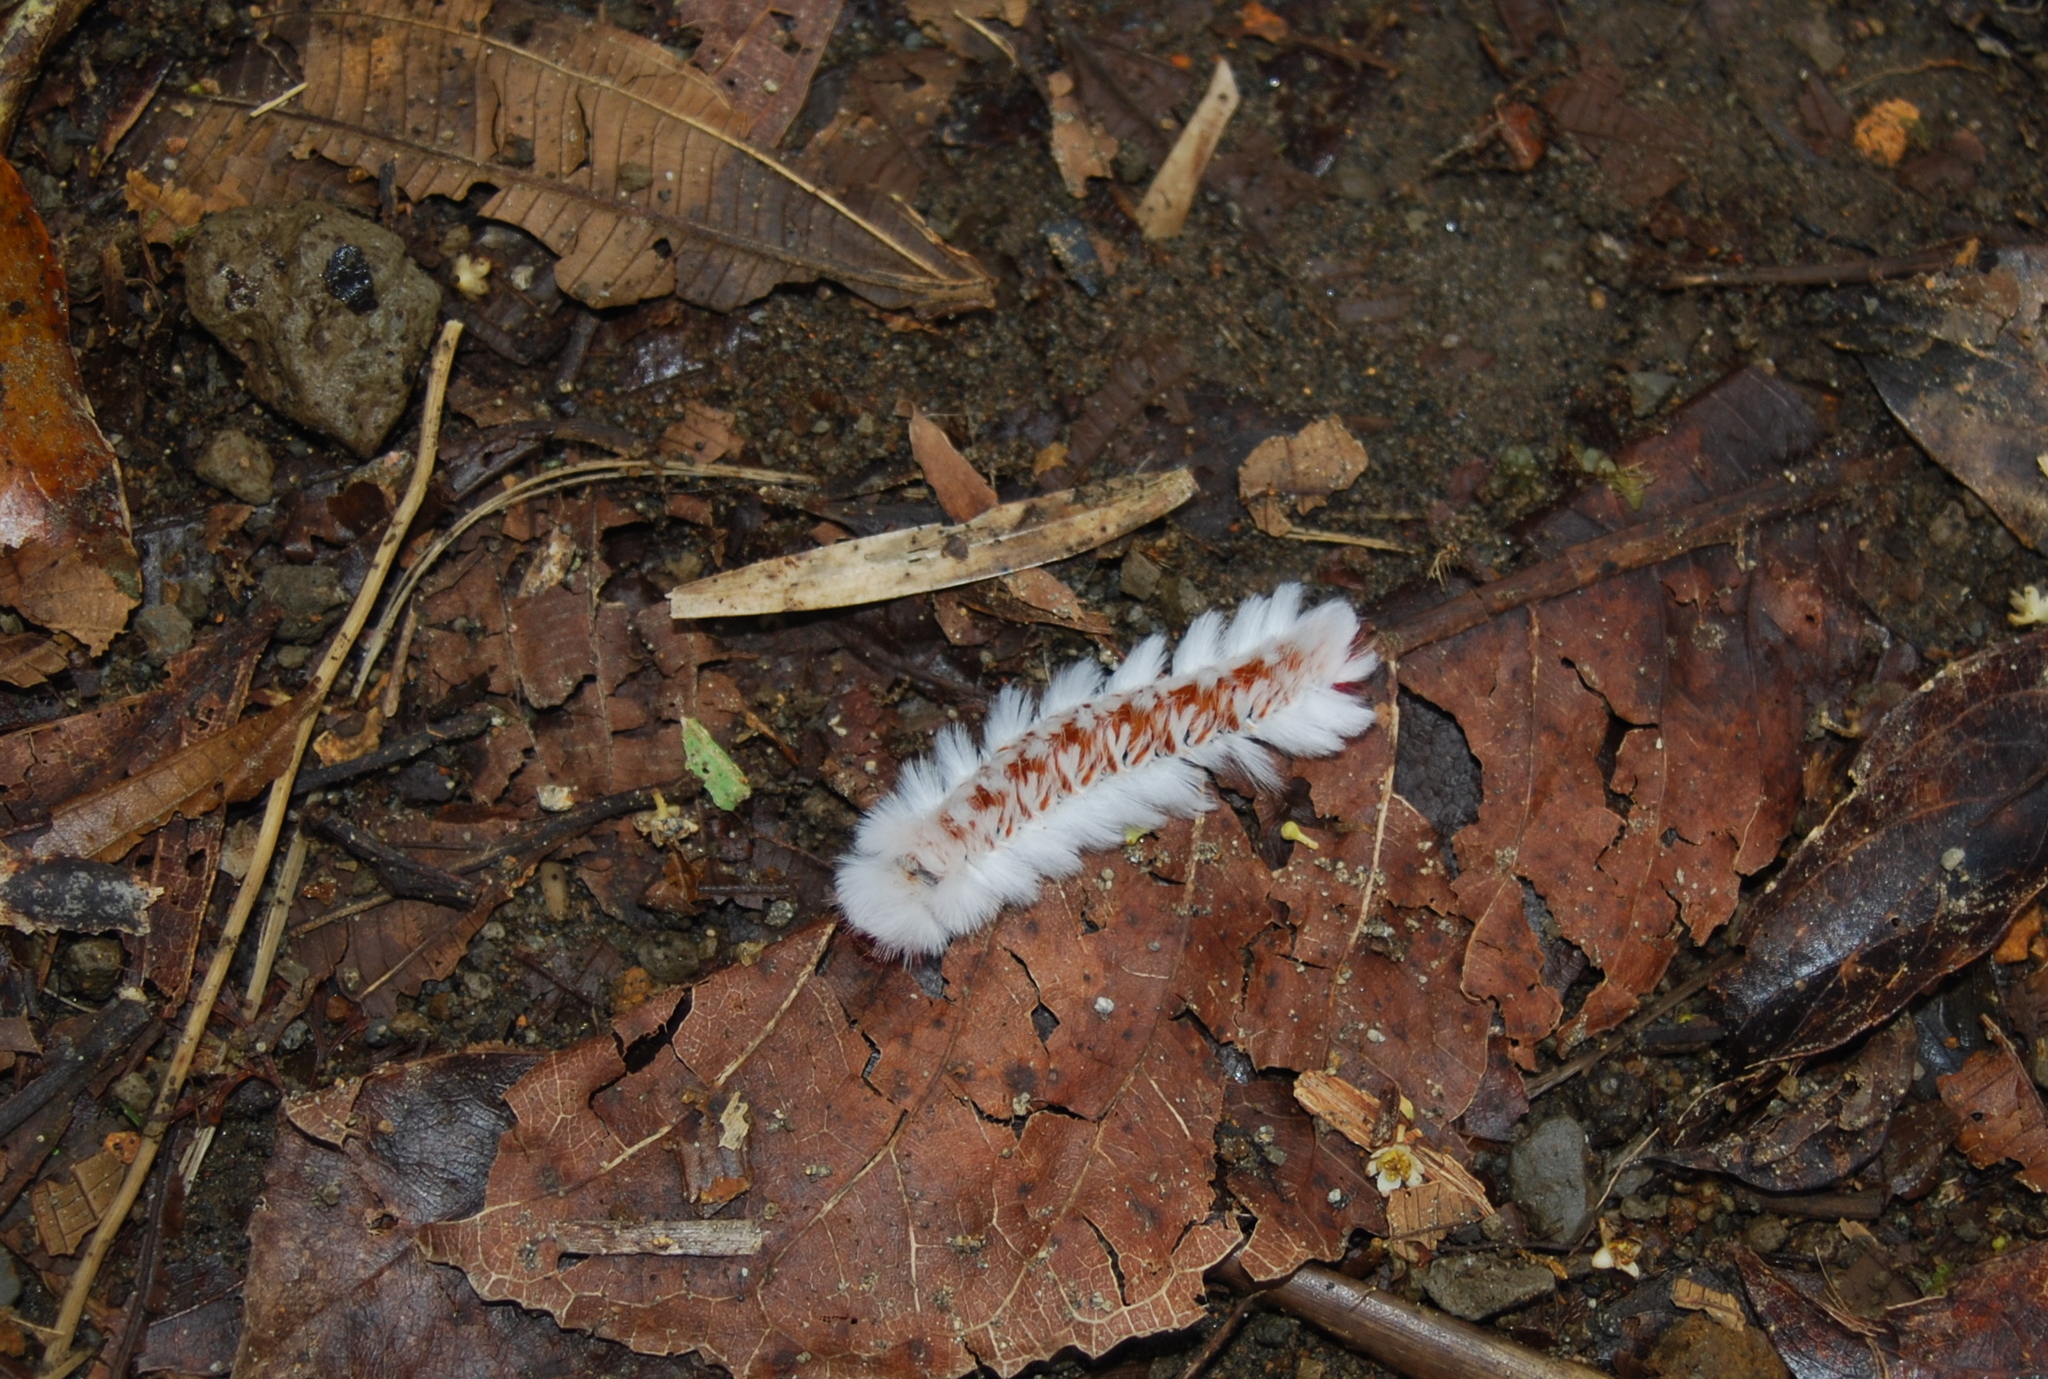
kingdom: Animalia
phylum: Arthropoda
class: Insecta
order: Lepidoptera
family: Eupterotidae
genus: Neopreptos
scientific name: Neopreptos marathusa
